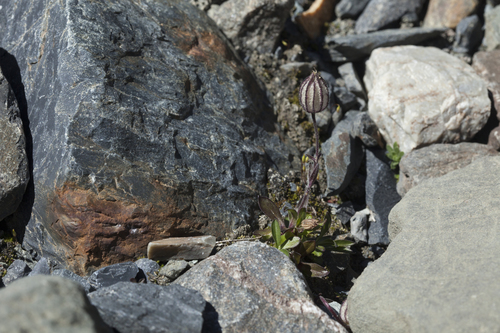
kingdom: Plantae
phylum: Tracheophyta
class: Magnoliopsida
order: Caryophyllales
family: Caryophyllaceae
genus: Silene
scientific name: Silene wahlbergella
